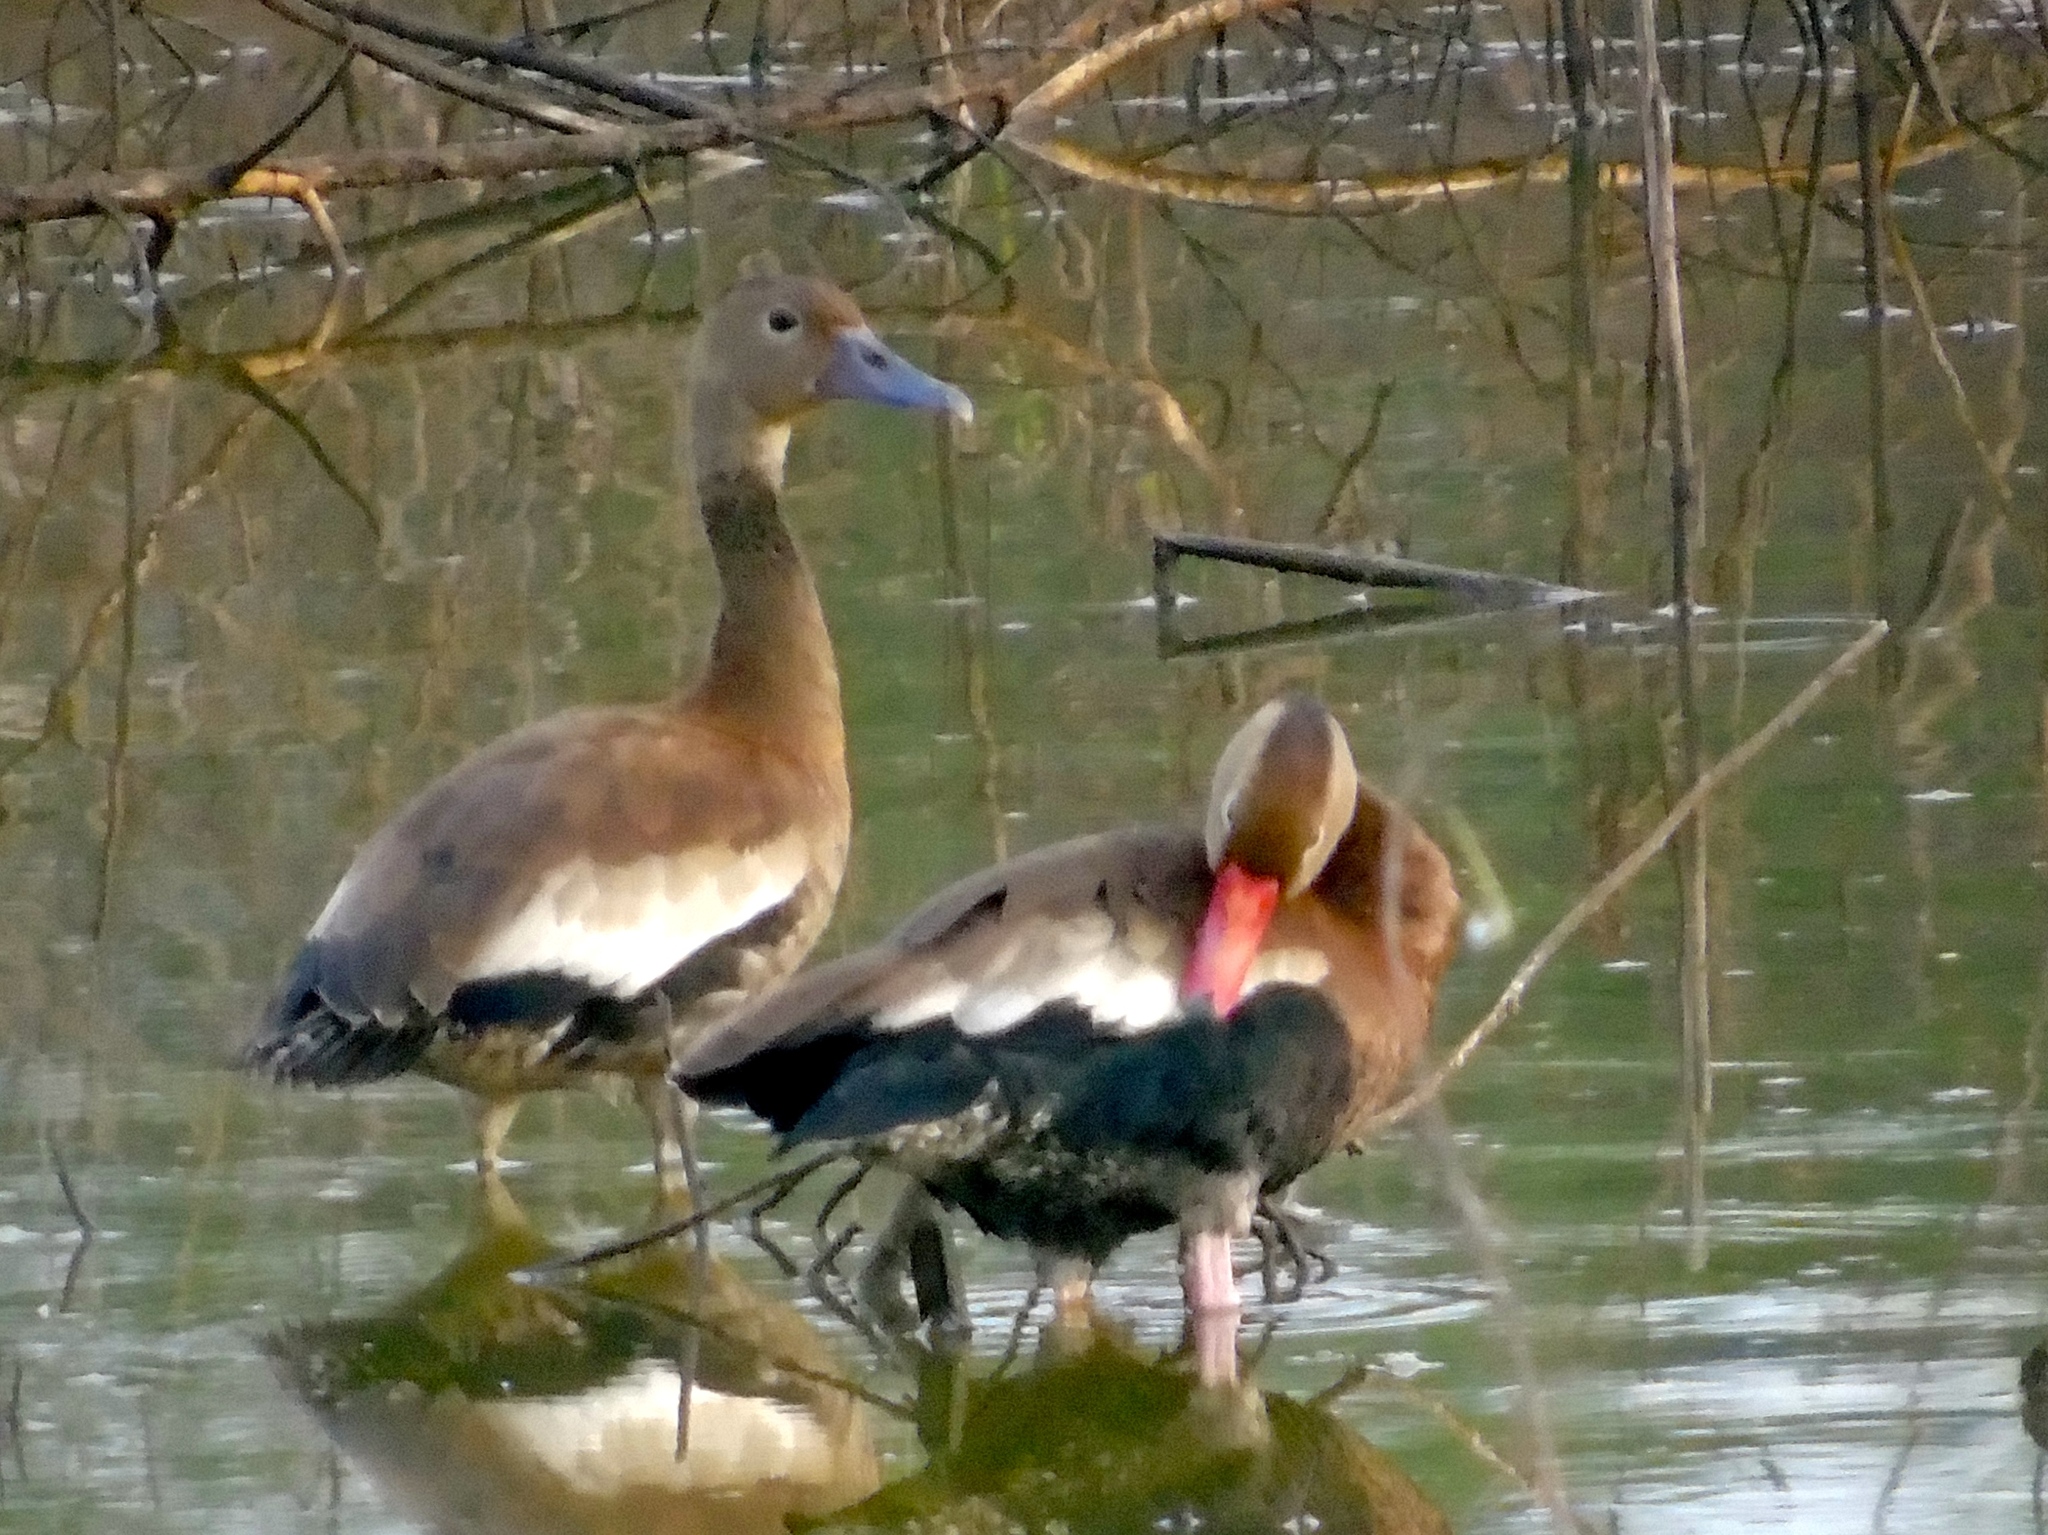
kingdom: Animalia
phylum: Chordata
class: Aves
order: Anseriformes
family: Anatidae
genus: Dendrocygna
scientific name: Dendrocygna autumnalis
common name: Black-bellied whistling duck
